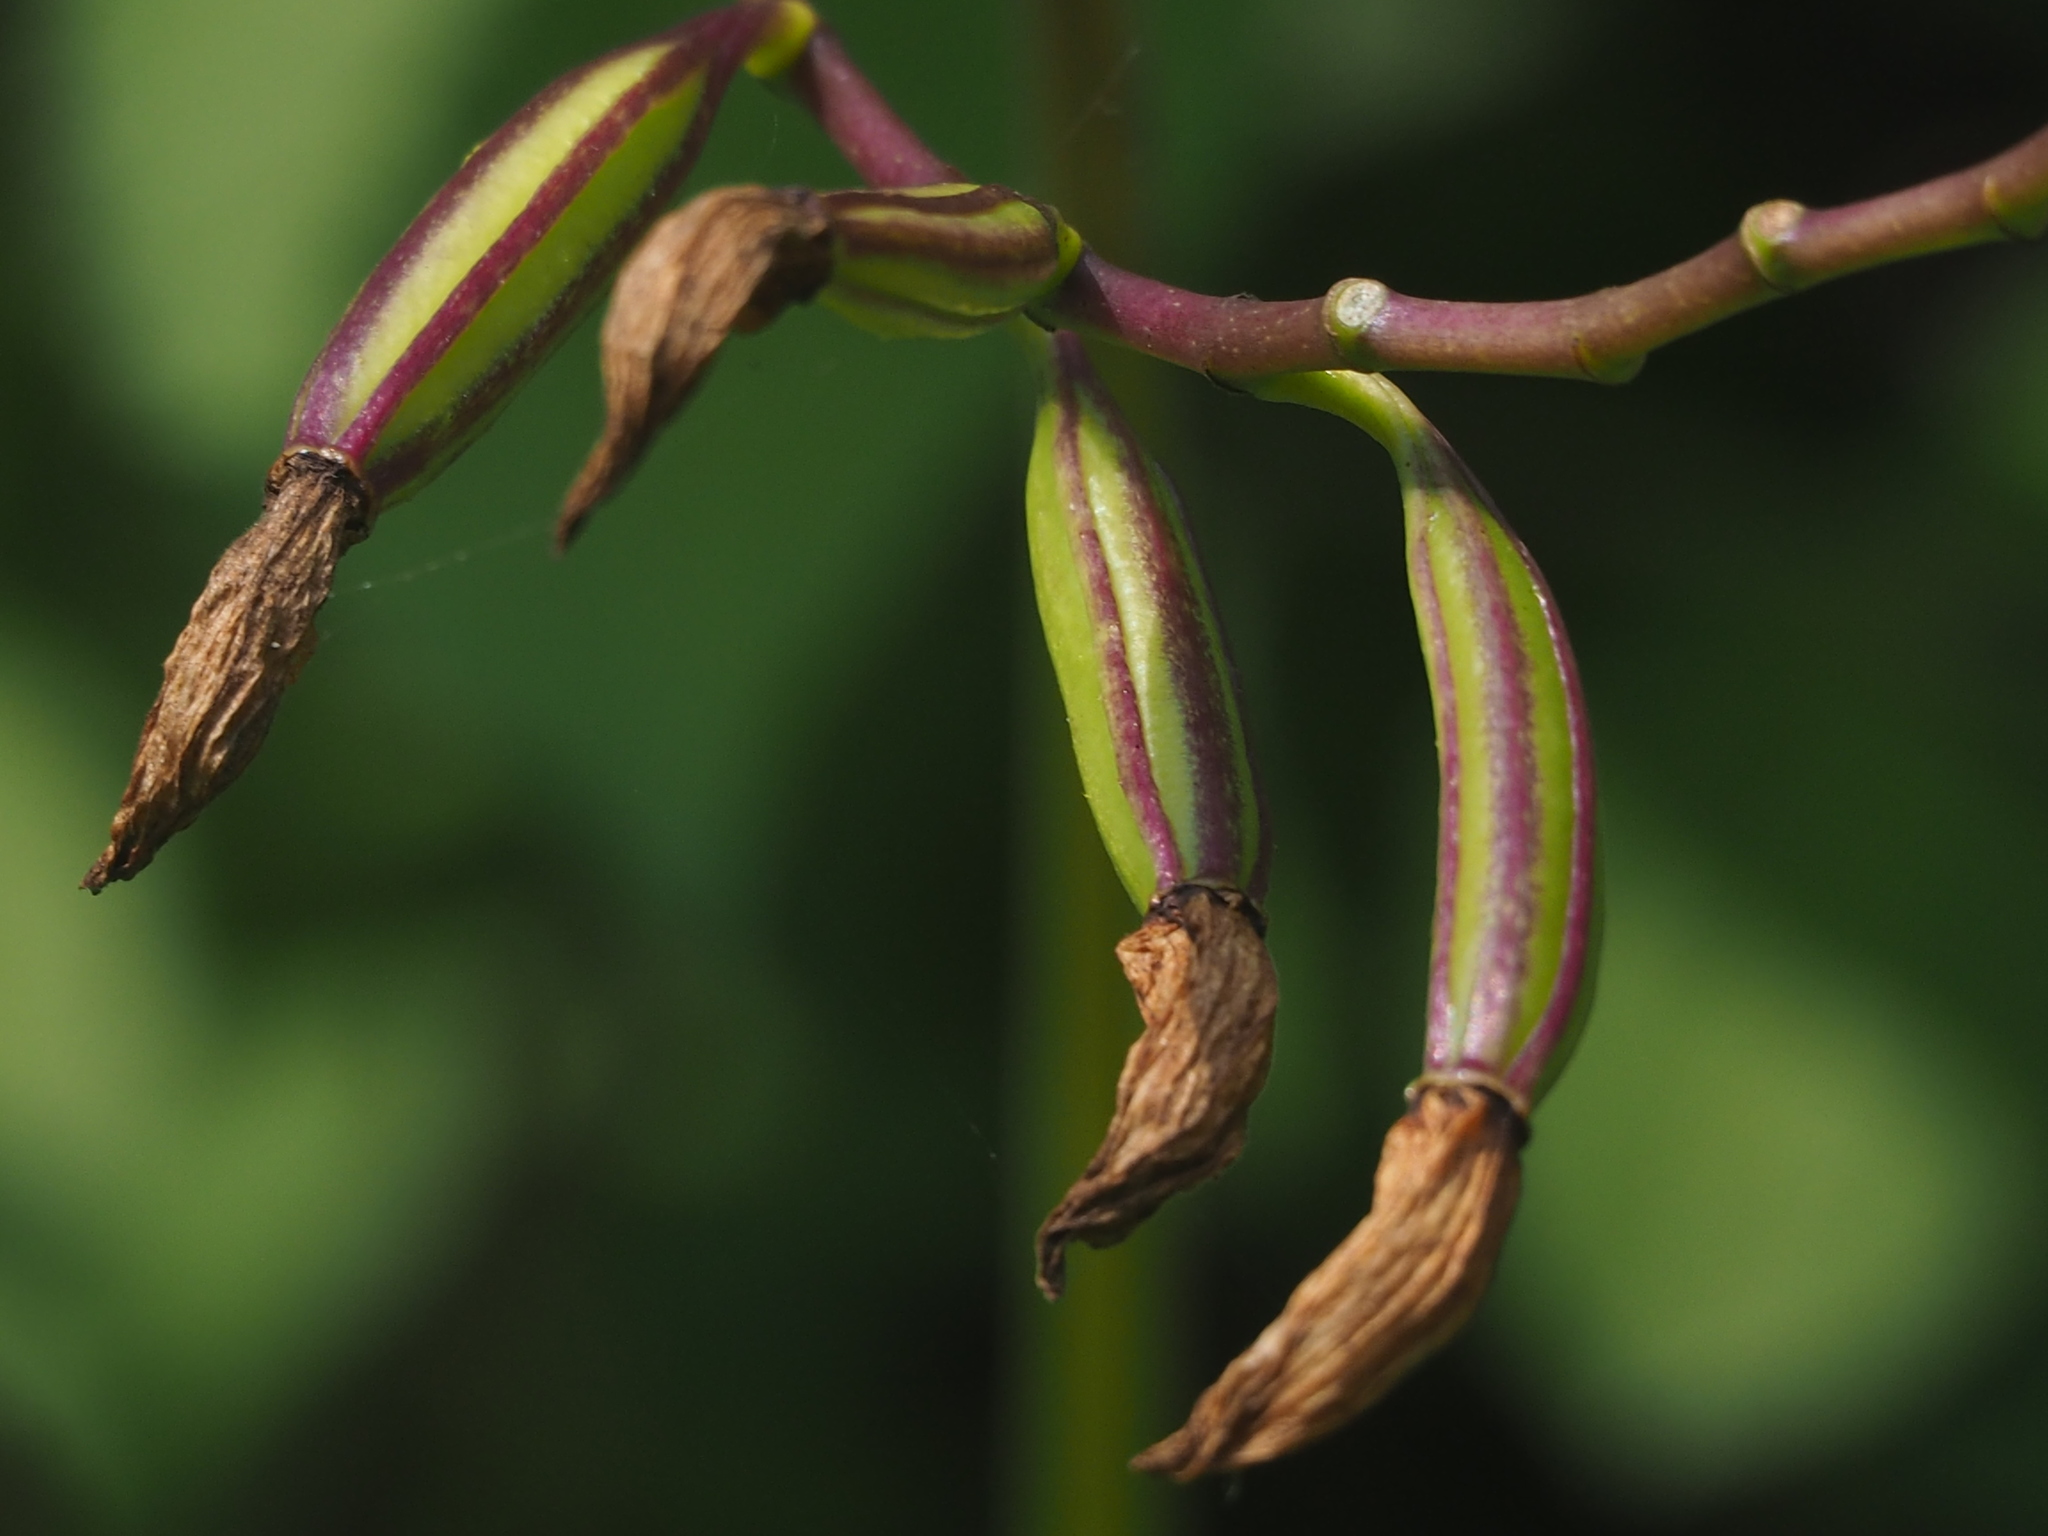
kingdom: Plantae
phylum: Tracheophyta
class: Liliopsida
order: Asparagales
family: Orchidaceae
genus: Bletilla
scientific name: Bletilla formosana
